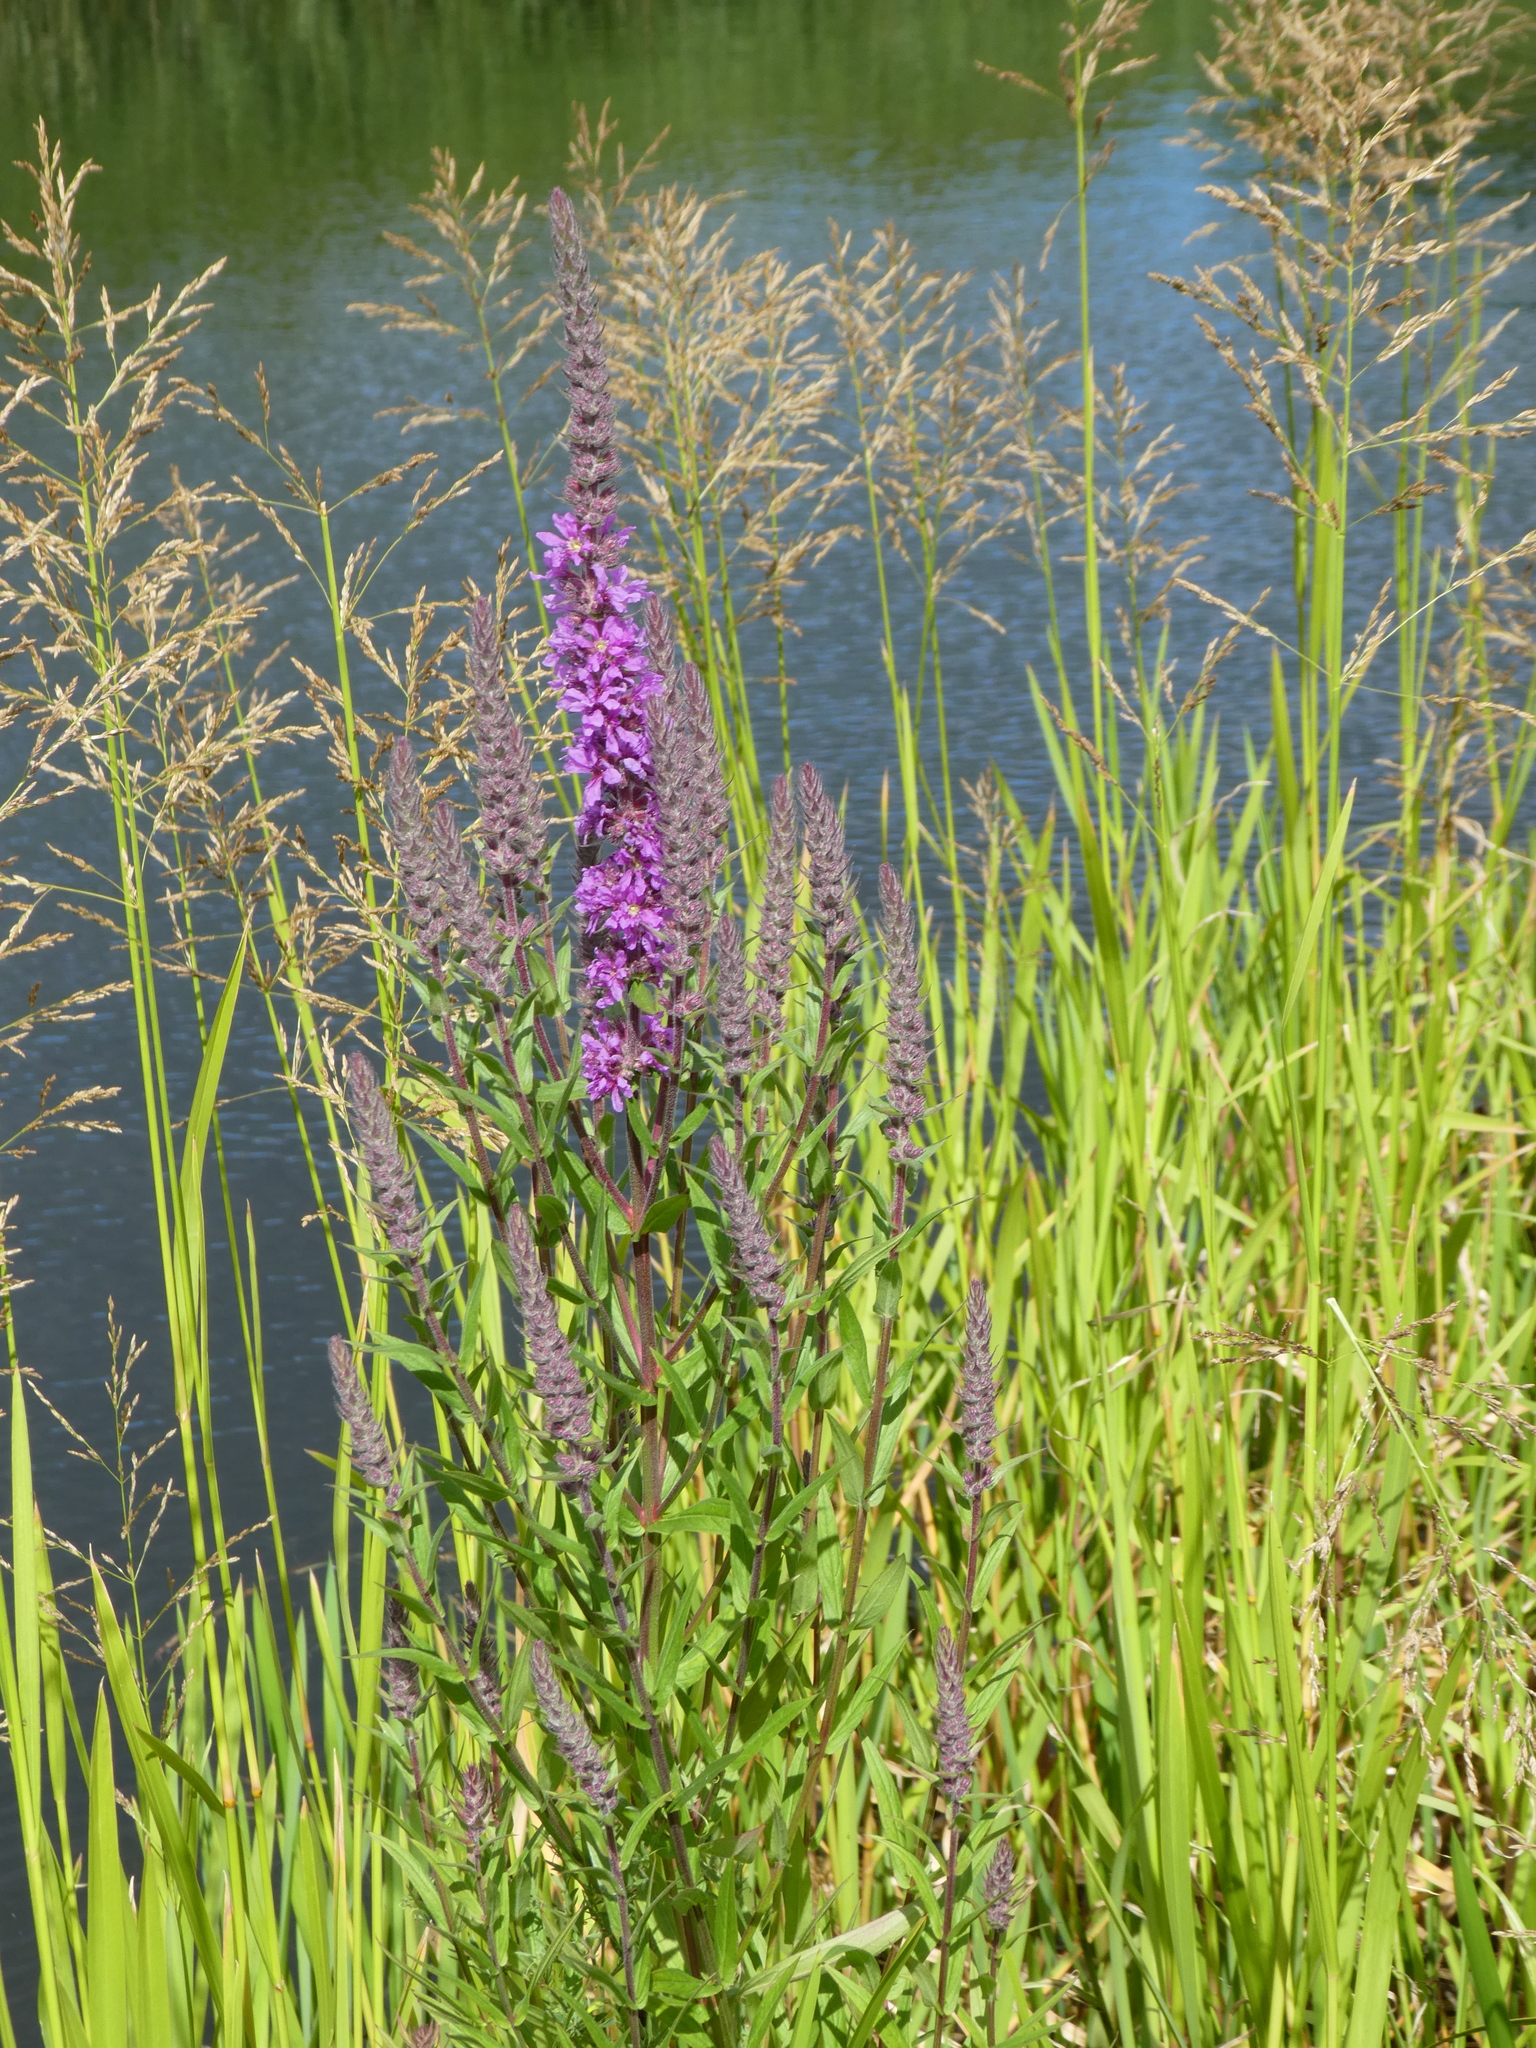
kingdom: Plantae
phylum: Tracheophyta
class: Magnoliopsida
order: Myrtales
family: Lythraceae
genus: Lythrum
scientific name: Lythrum salicaria
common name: Purple loosestrife
